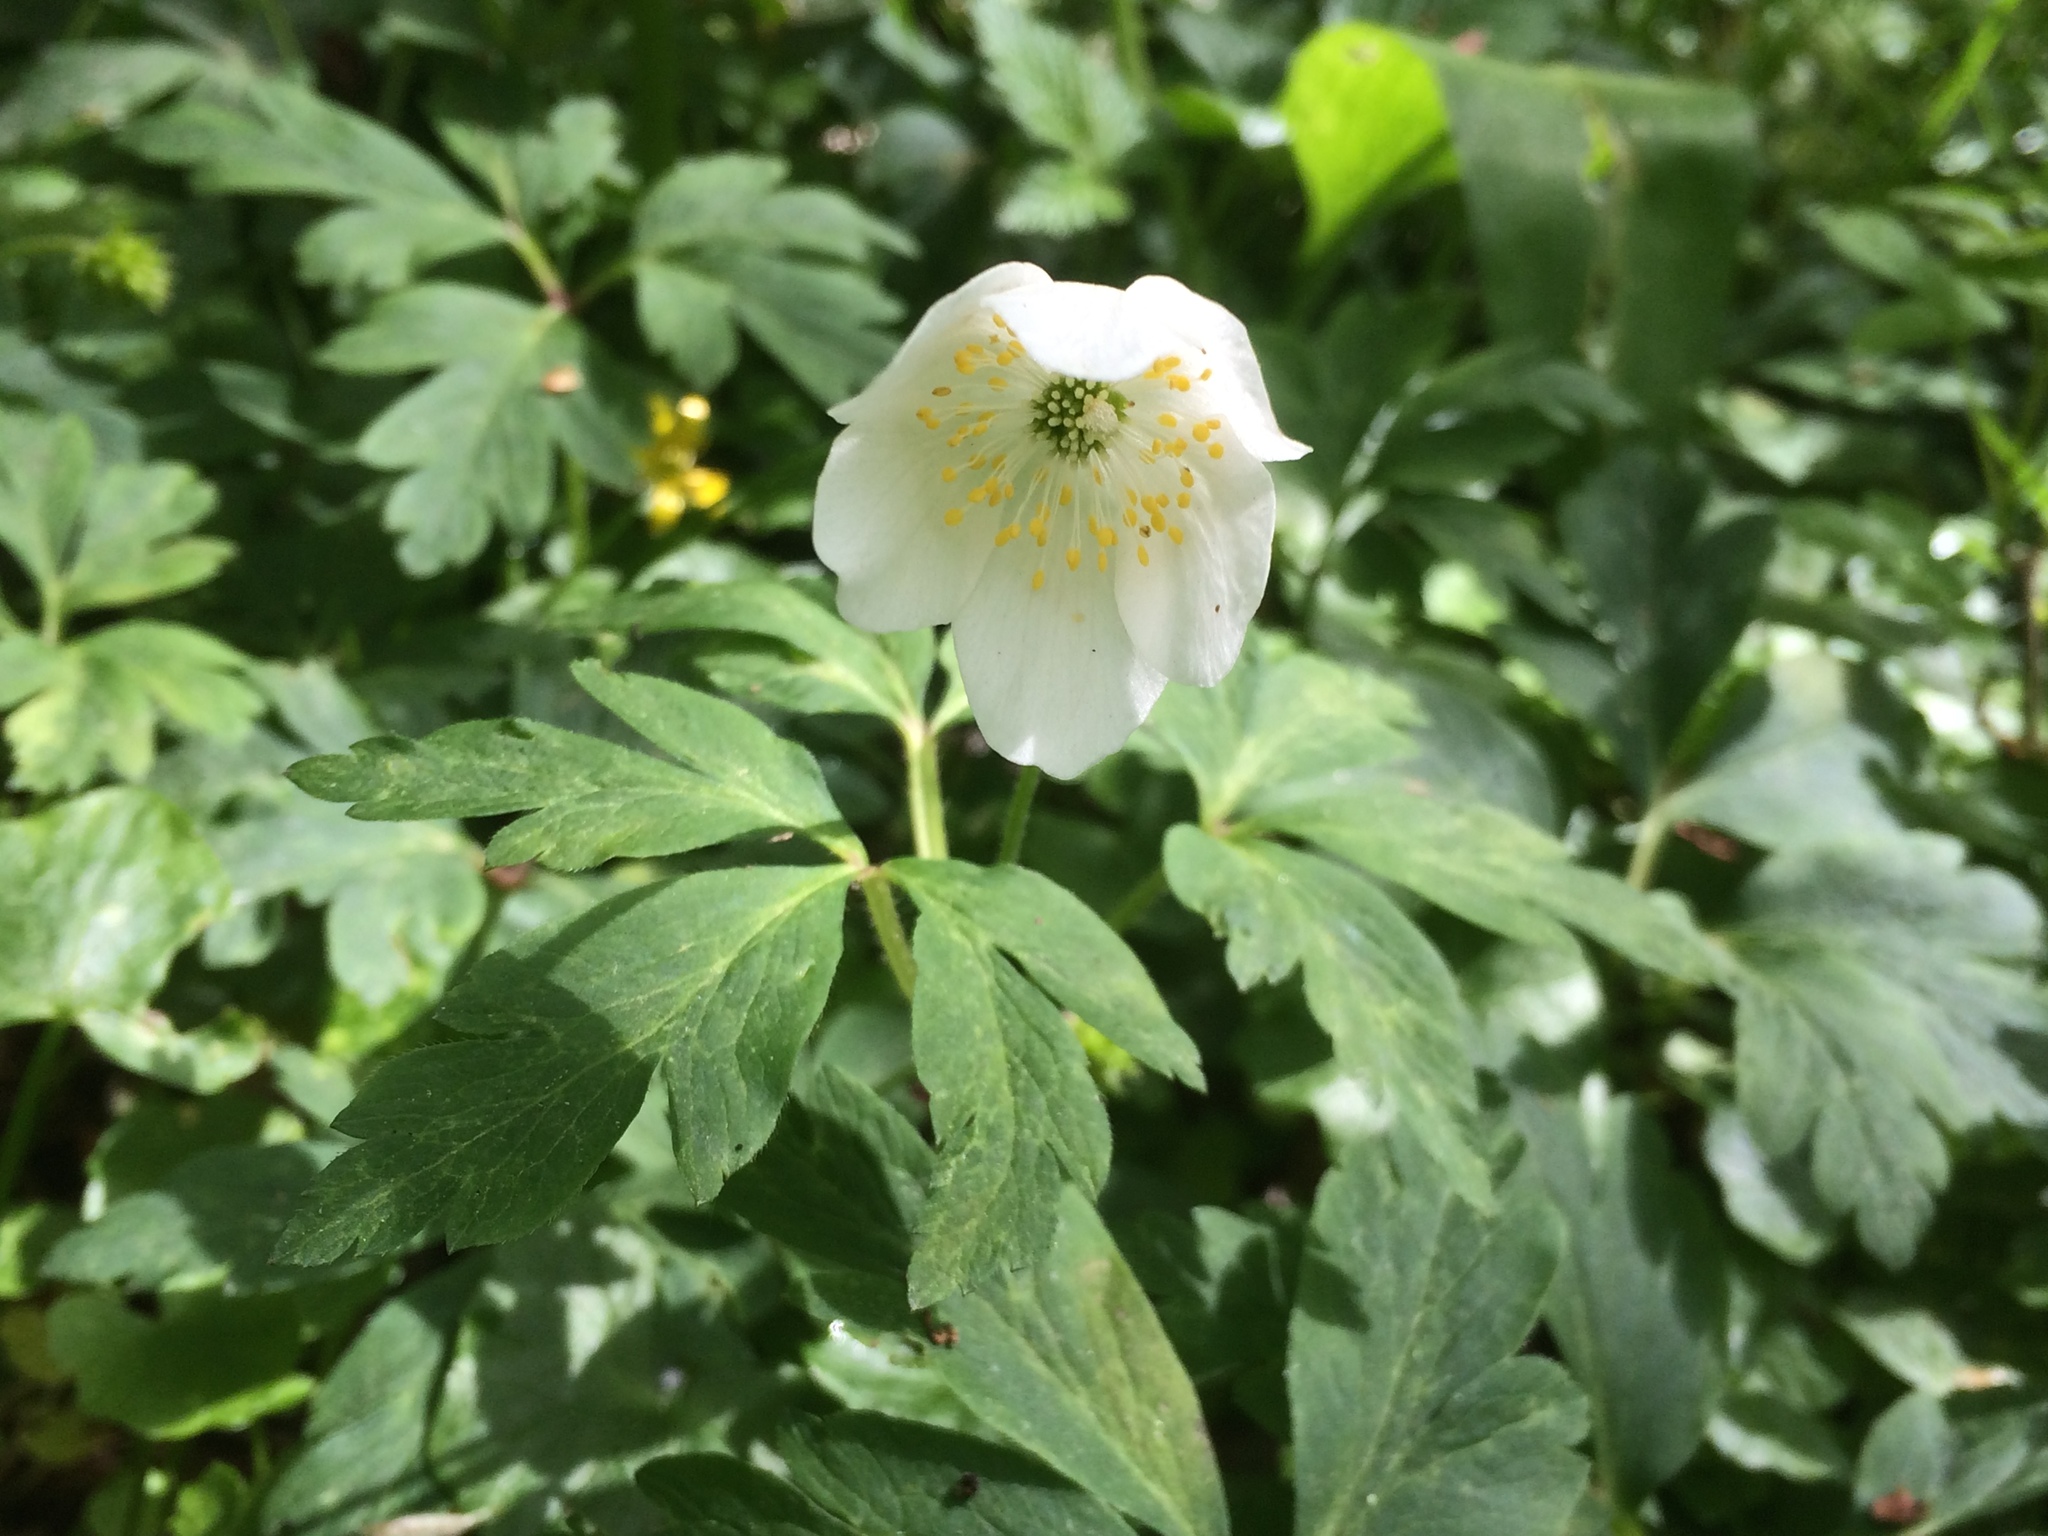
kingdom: Plantae
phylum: Tracheophyta
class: Magnoliopsida
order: Ranunculales
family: Ranunculaceae
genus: Anemone
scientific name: Anemone nemorosa
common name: Wood anemone
